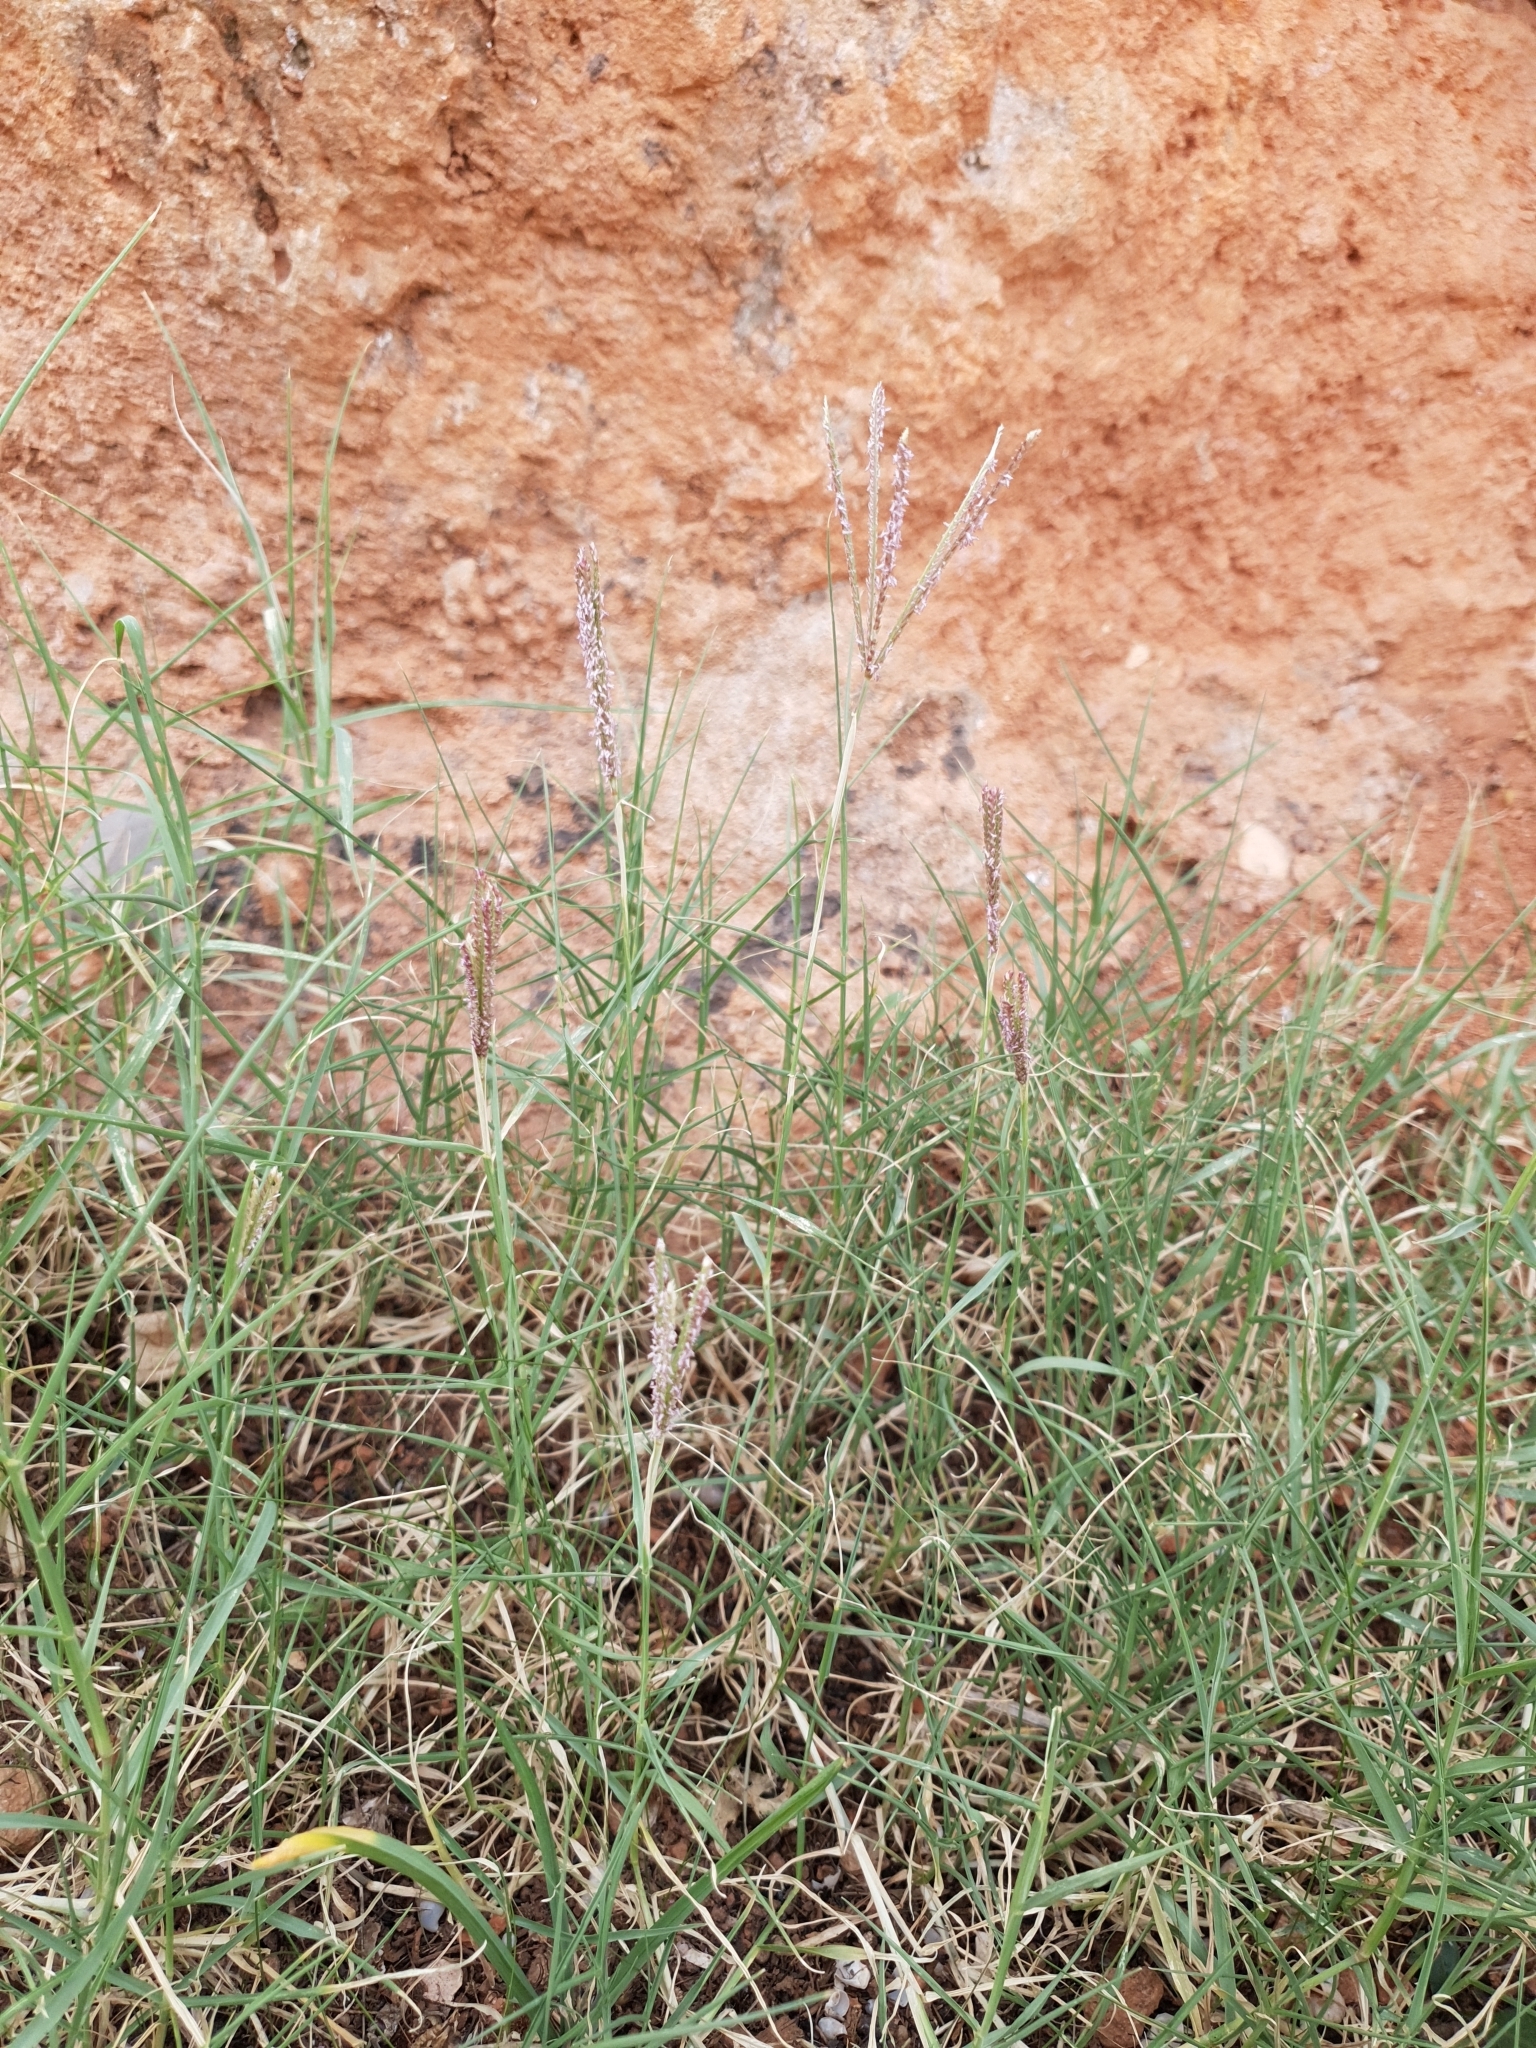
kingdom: Plantae
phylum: Tracheophyta
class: Liliopsida
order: Poales
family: Poaceae
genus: Cynodon
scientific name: Cynodon dactylon
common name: Bermuda grass
